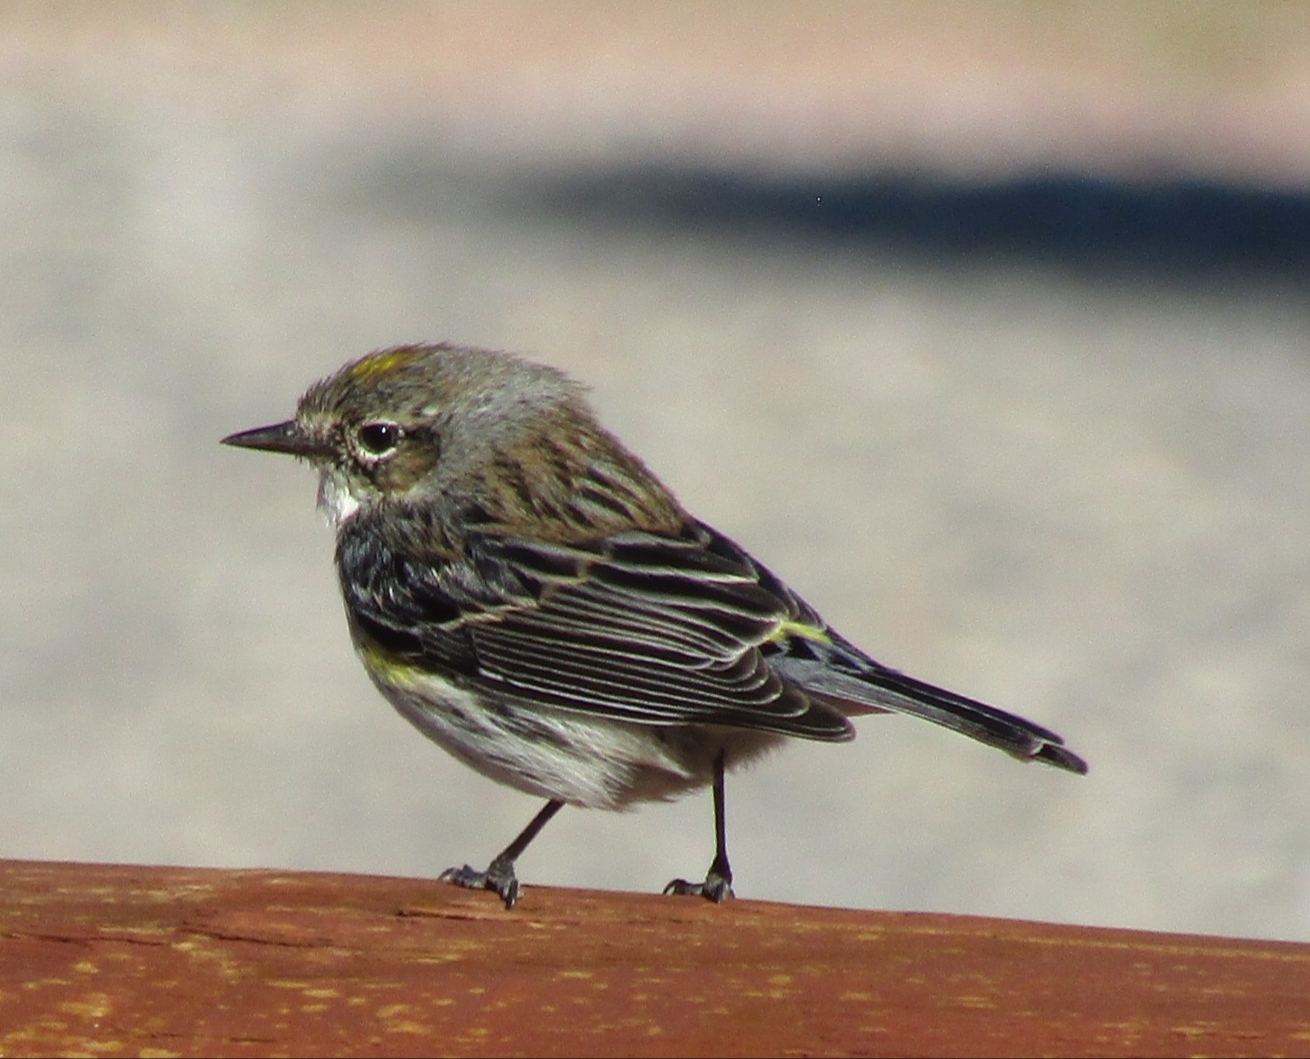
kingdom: Animalia
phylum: Chordata
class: Aves
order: Passeriformes
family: Parulidae
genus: Setophaga
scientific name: Setophaga coronata
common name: Myrtle warbler
